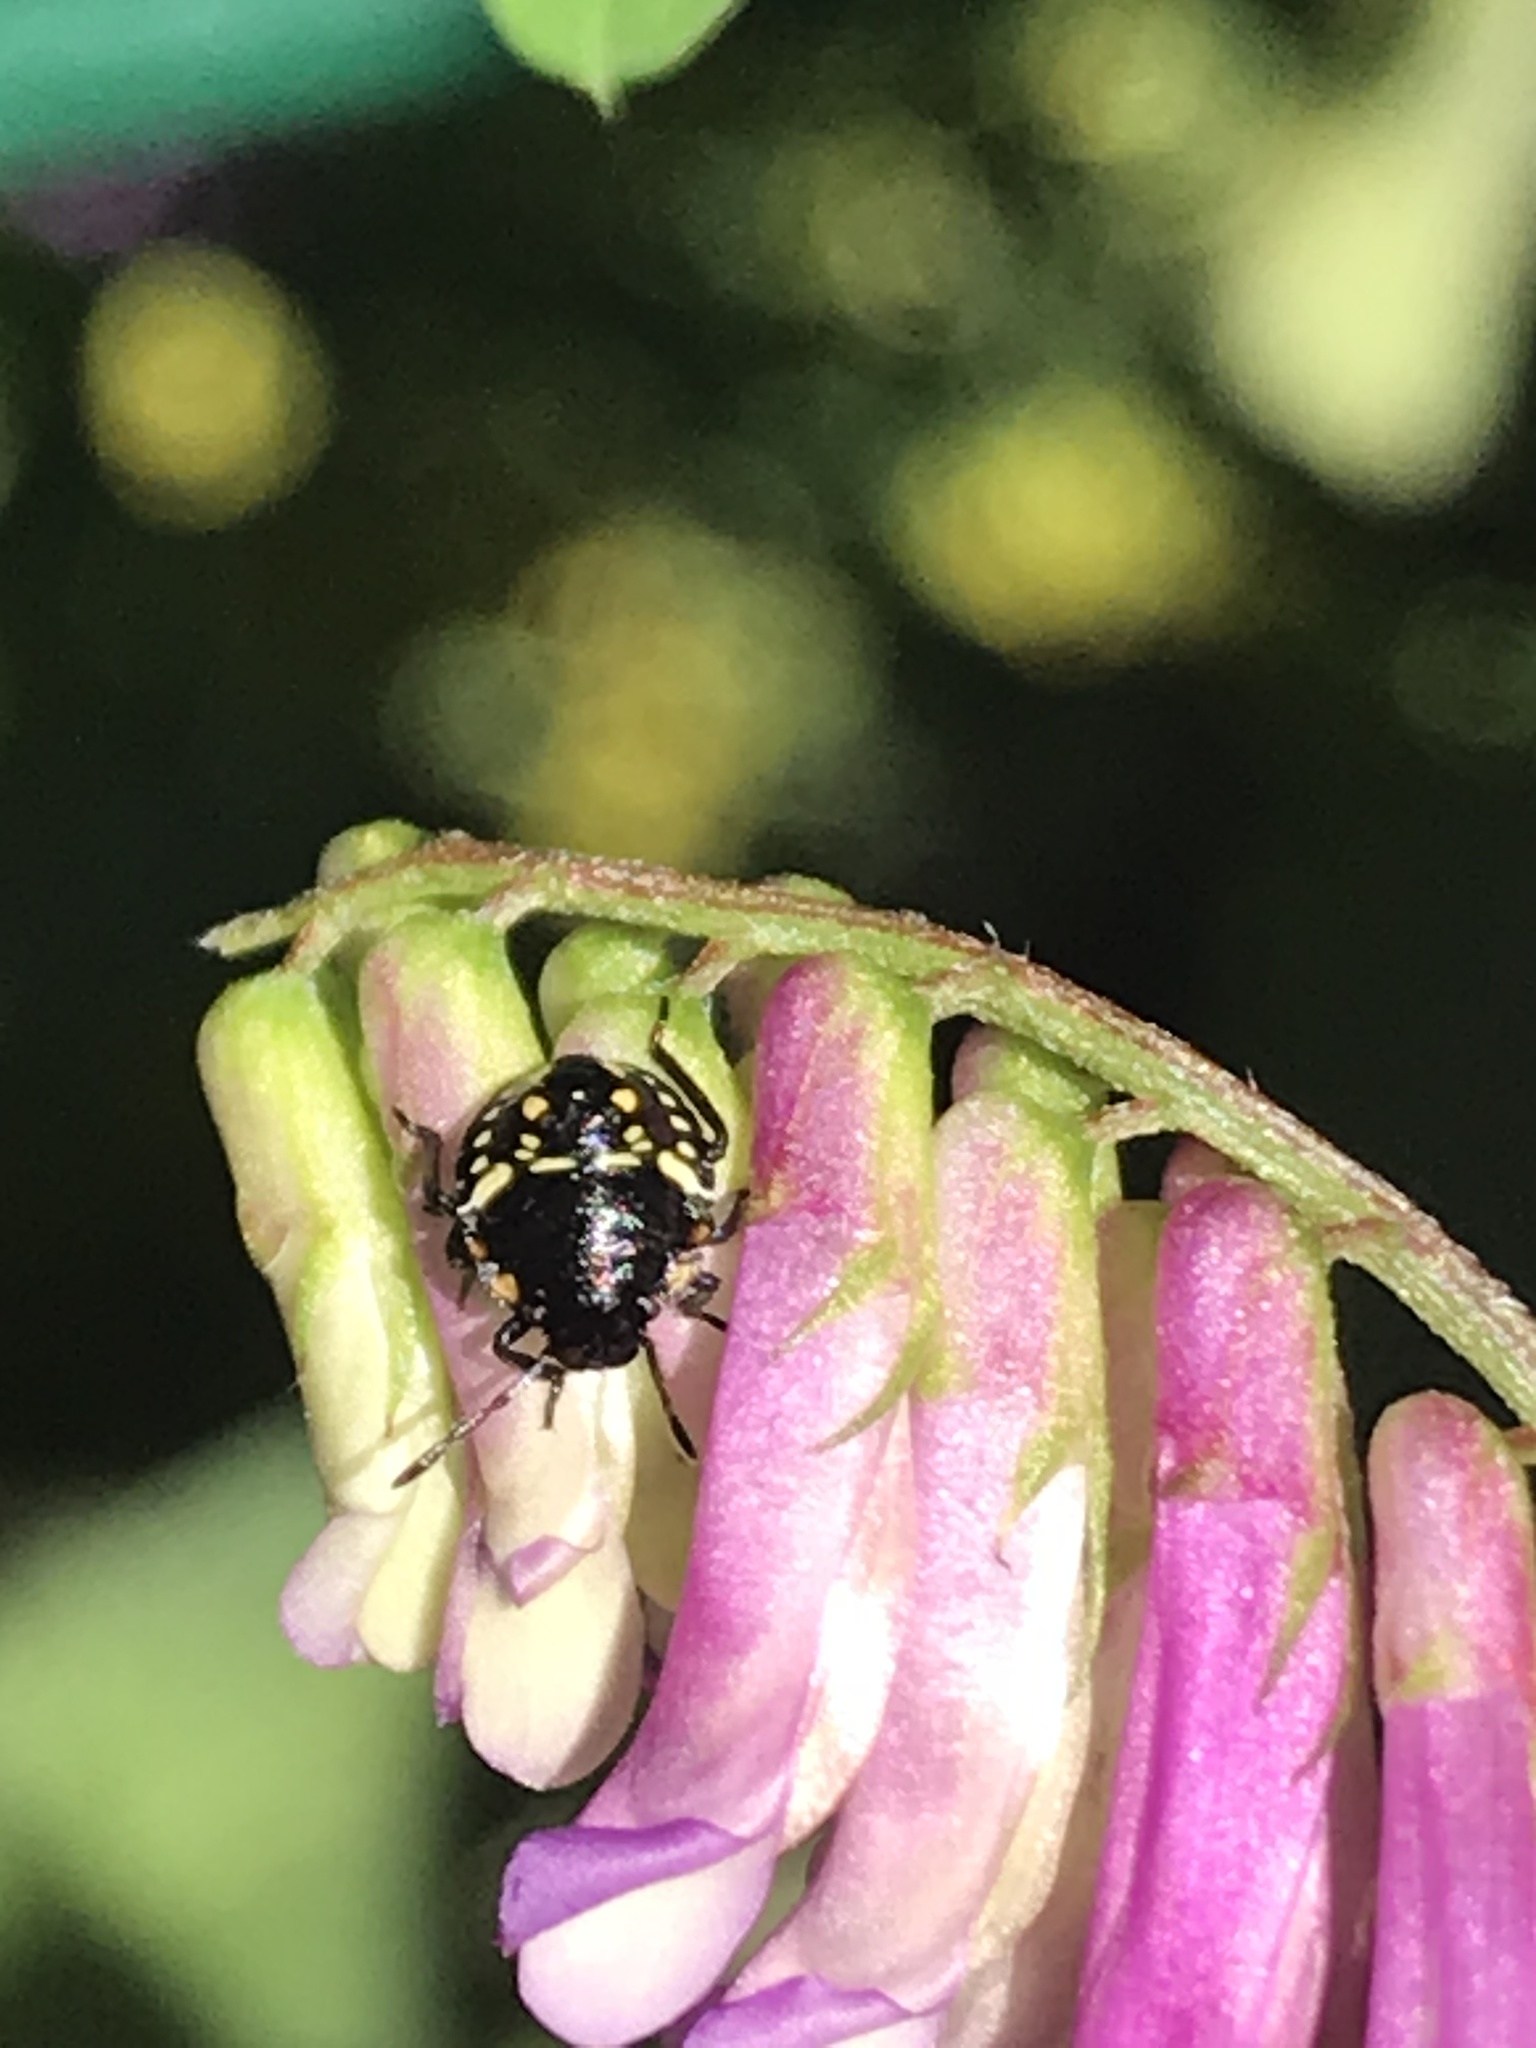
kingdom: Animalia
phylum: Arthropoda
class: Insecta
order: Hemiptera
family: Pentatomidae
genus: Nezara
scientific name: Nezara viridula
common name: Southern green stink bug
